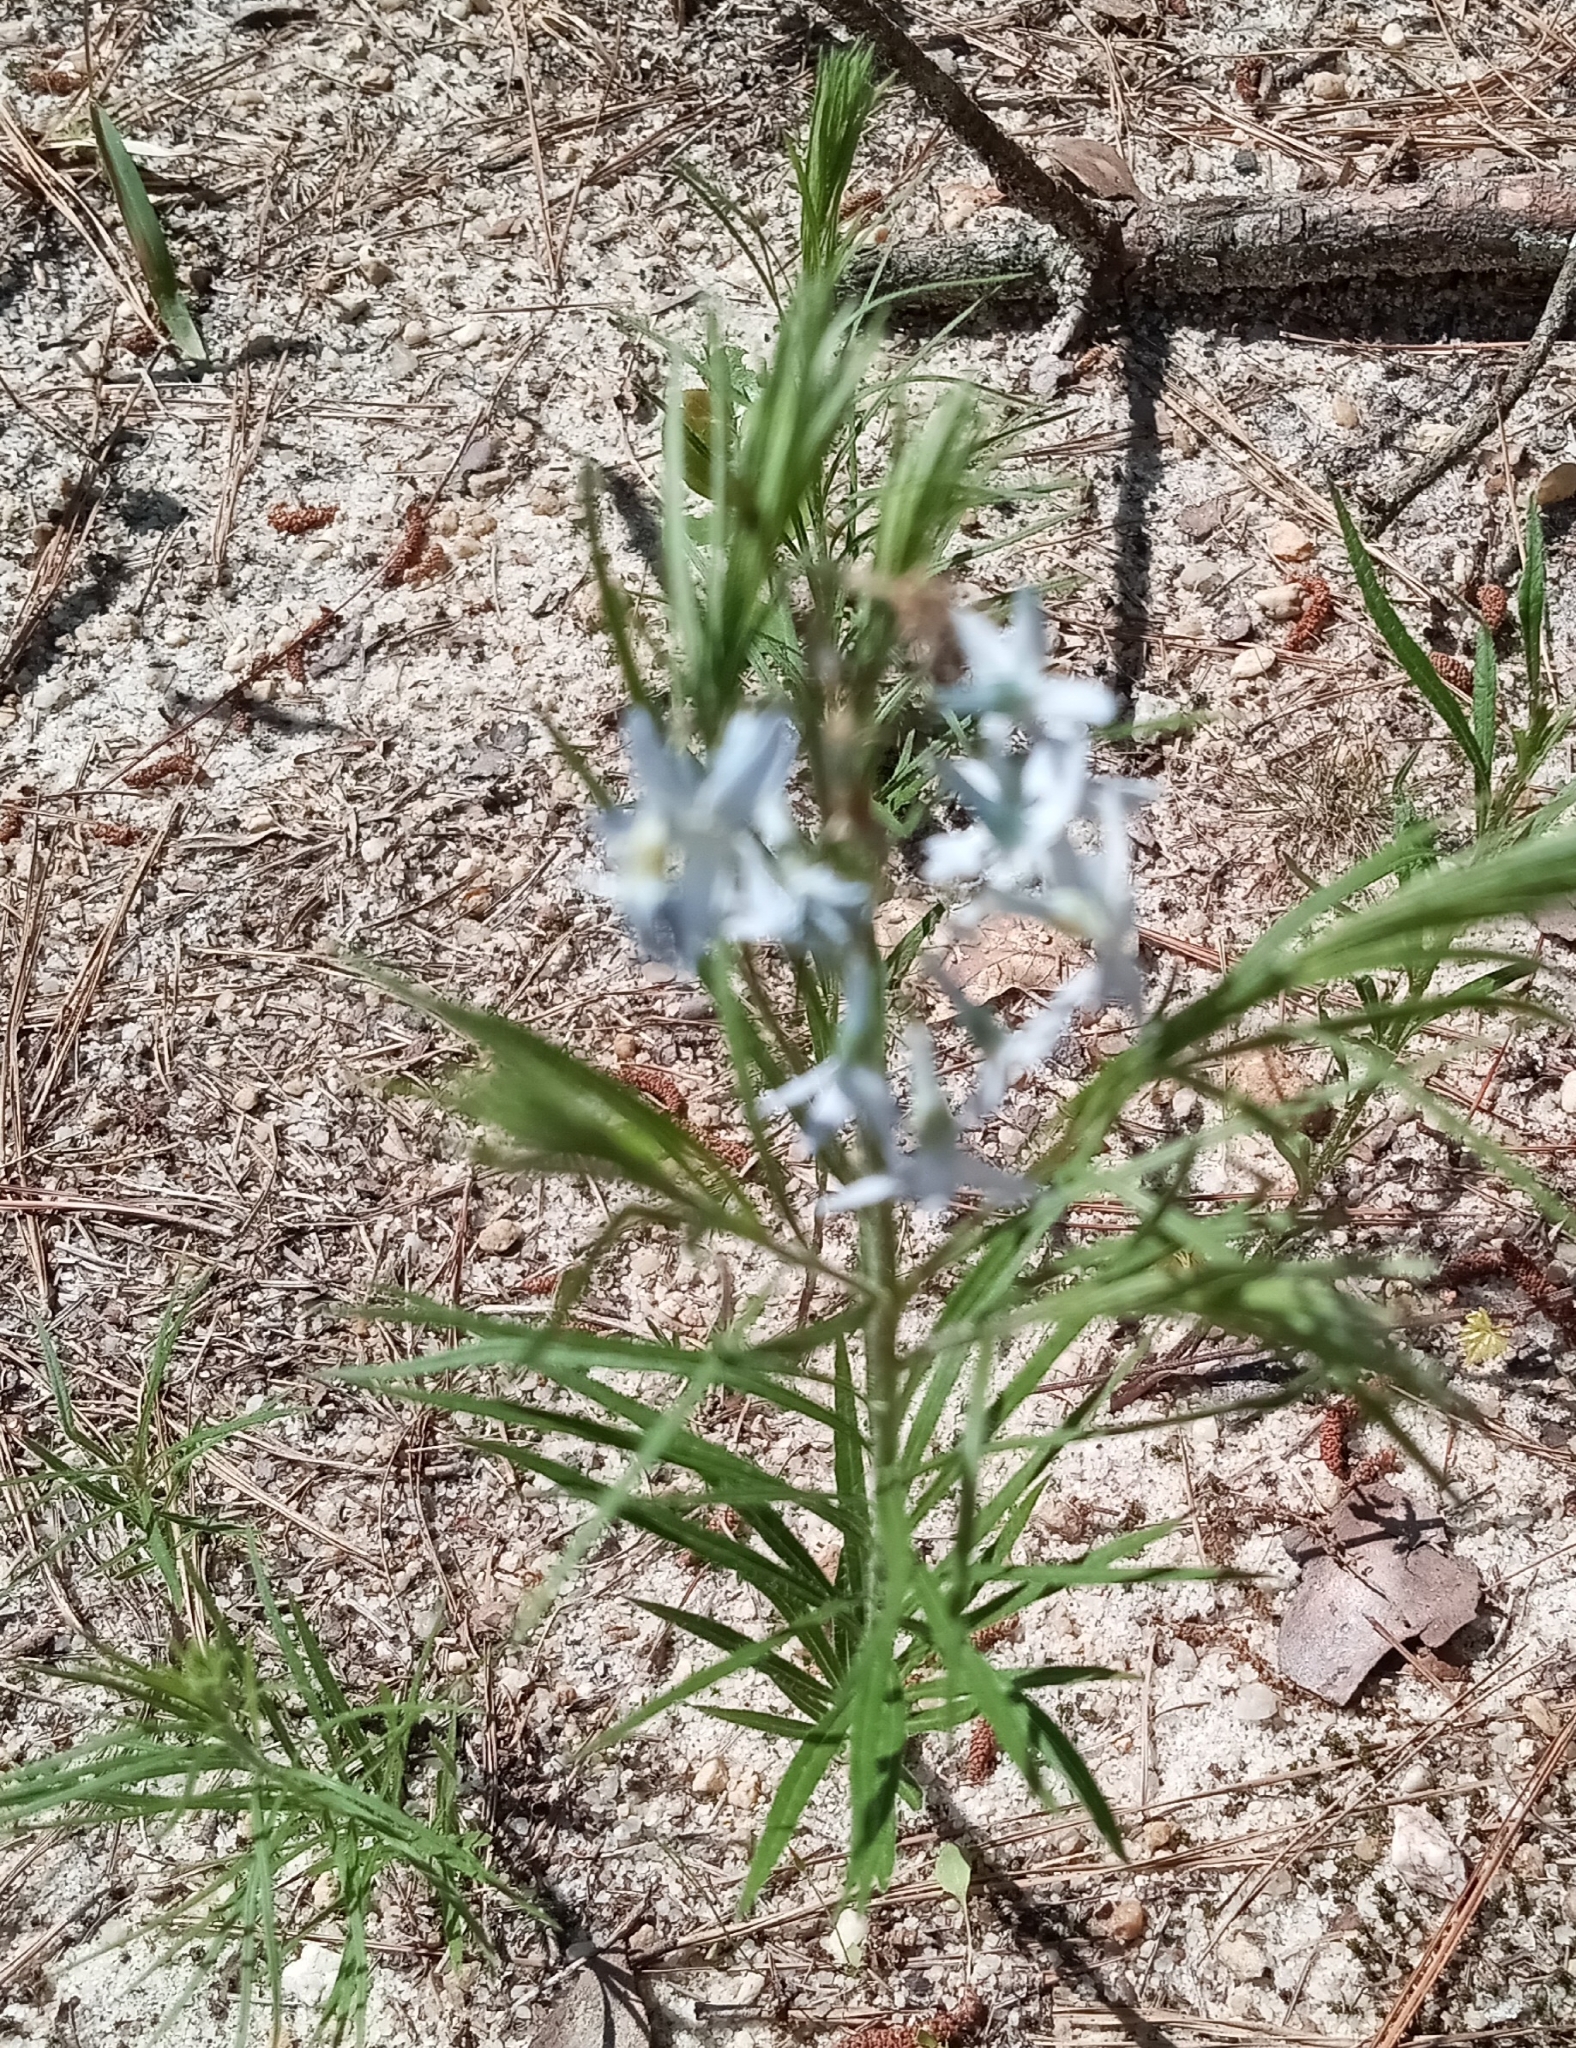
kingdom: Plantae
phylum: Tracheophyta
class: Magnoliopsida
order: Gentianales
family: Apocynaceae
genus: Amsonia
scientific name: Amsonia ciliata
